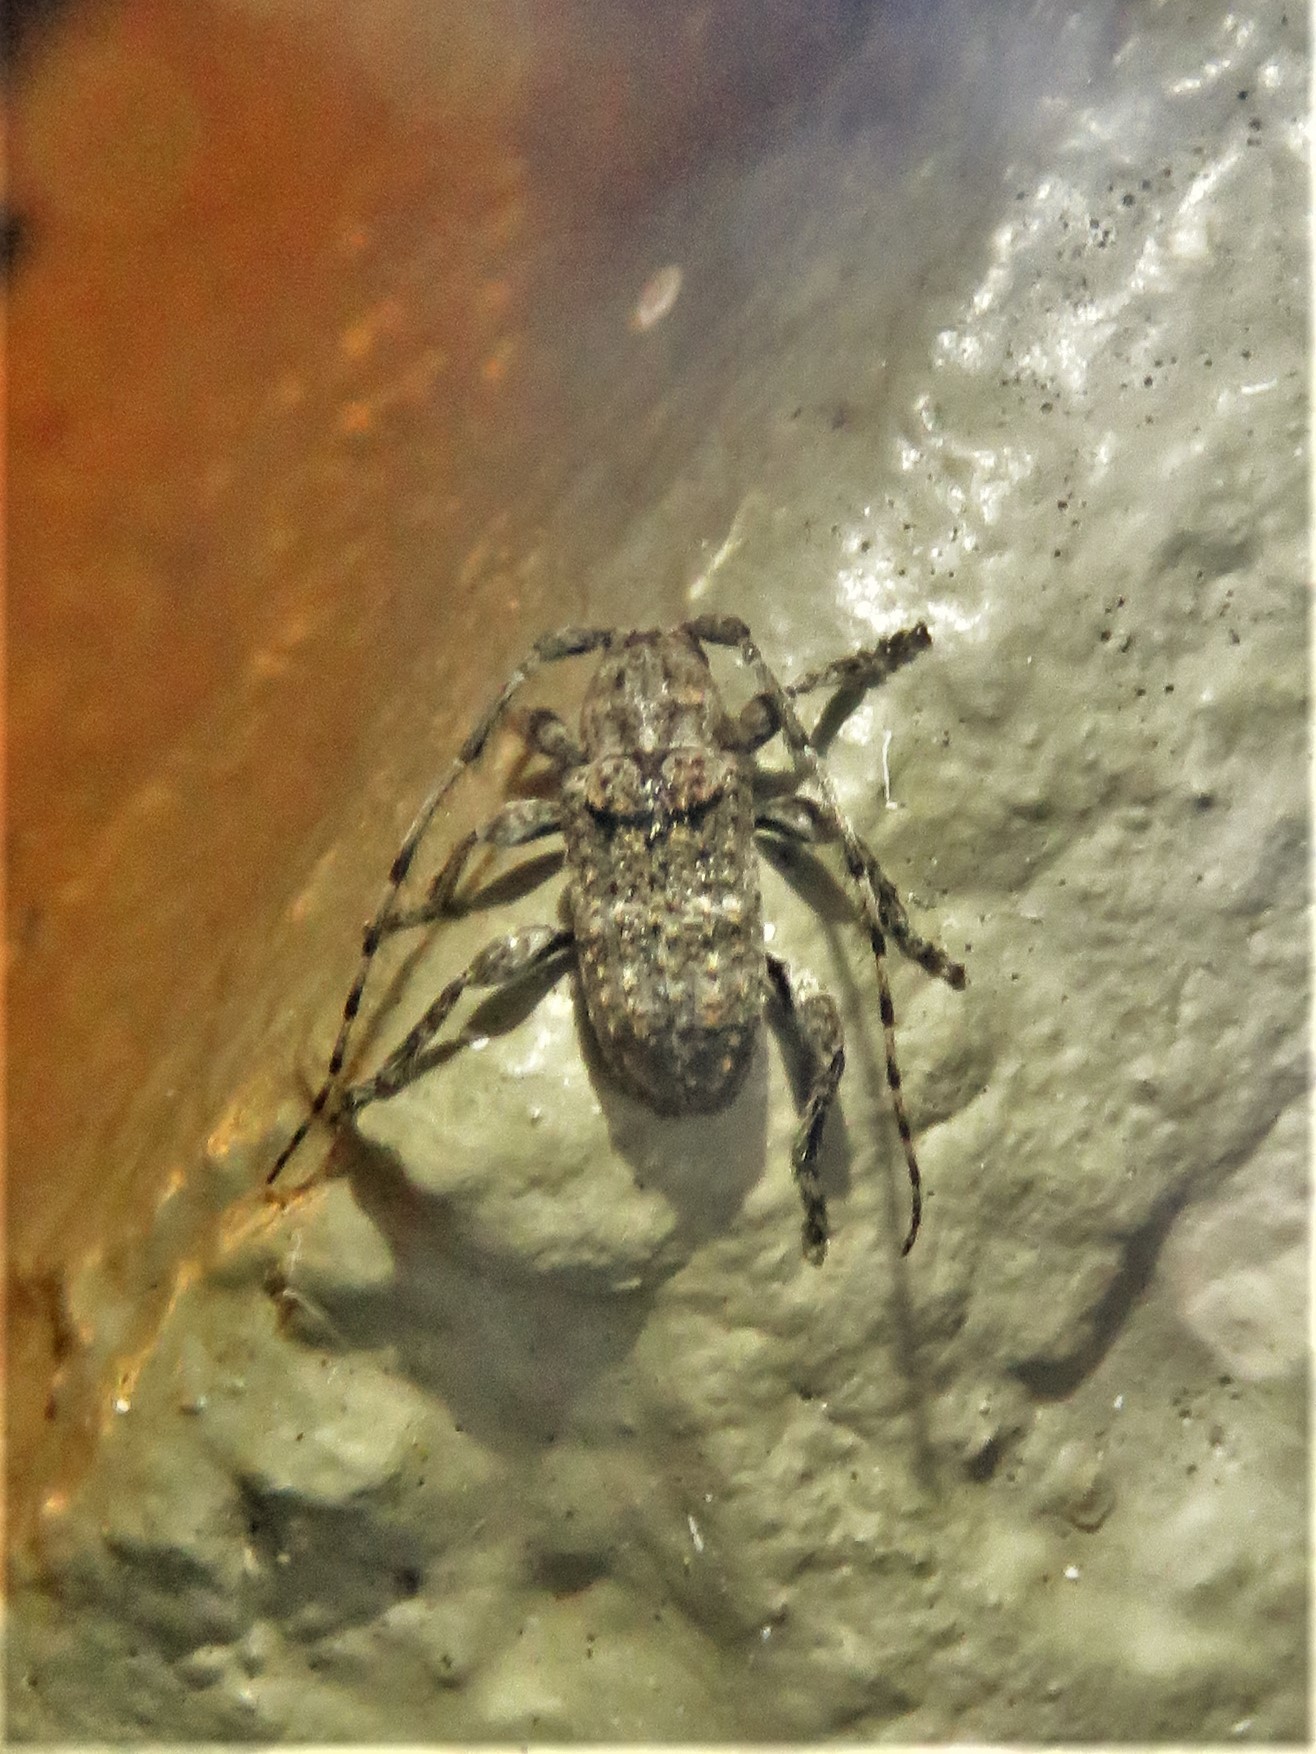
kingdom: Animalia
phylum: Arthropoda
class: Insecta
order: Coleoptera
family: Cerambycidae
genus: Ecyrus
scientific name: Ecyrus dasycerus
